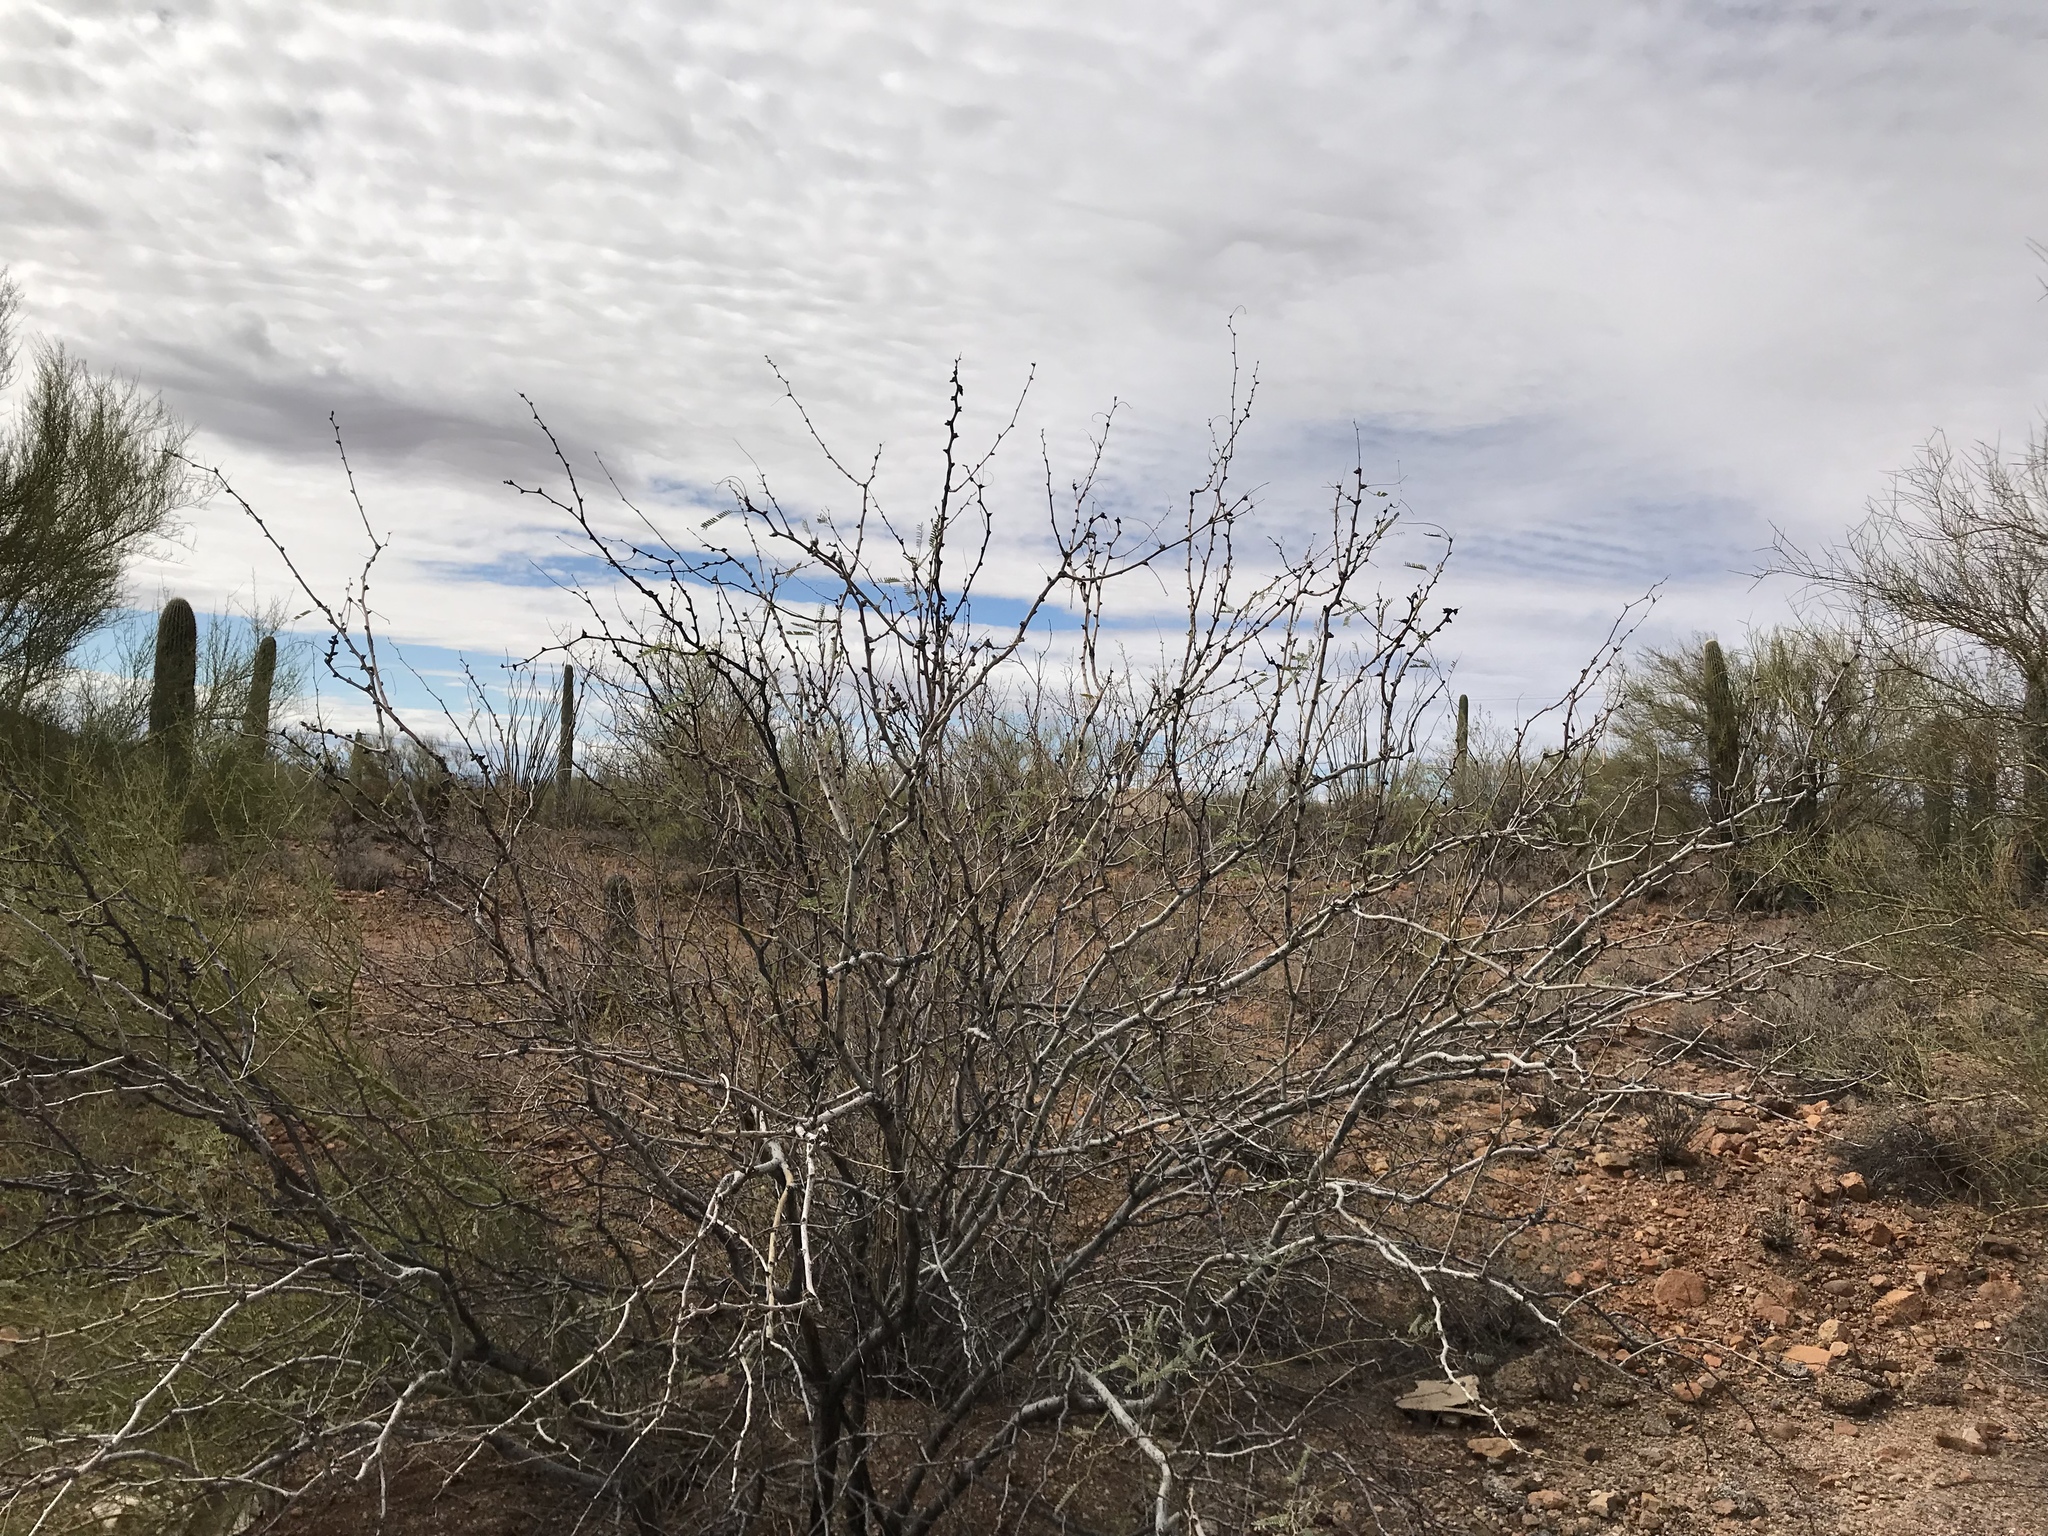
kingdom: Plantae
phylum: Tracheophyta
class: Magnoliopsida
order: Fabales
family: Fabaceae
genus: Prosopis
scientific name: Prosopis glandulosa
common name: Honey mesquite
